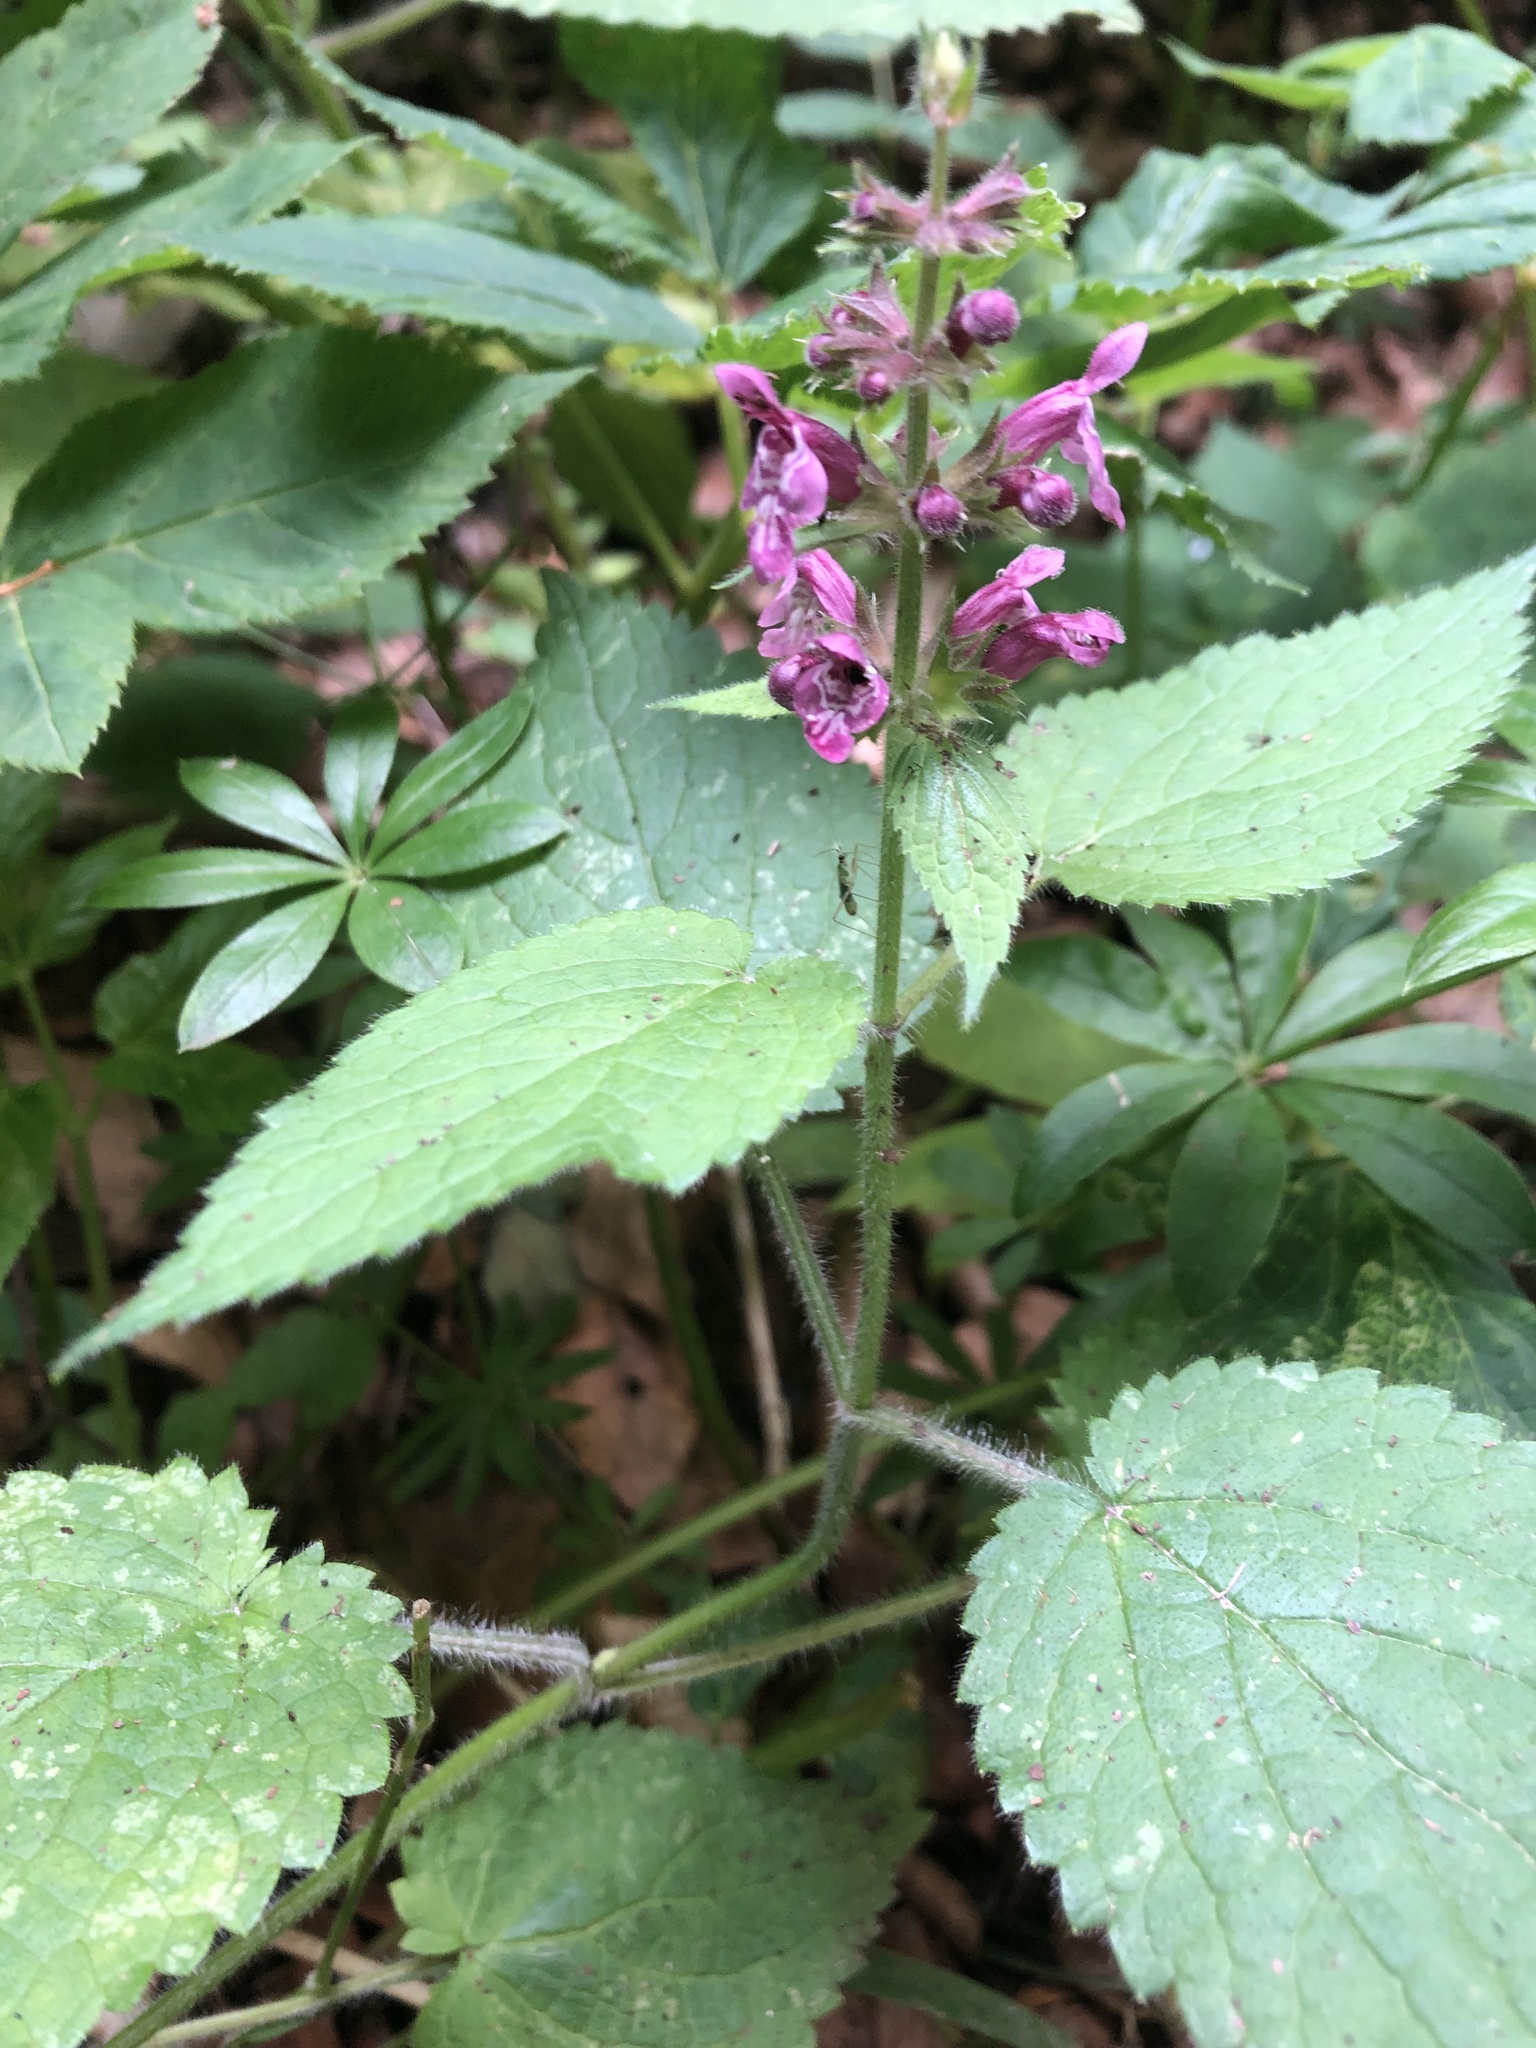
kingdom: Plantae
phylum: Tracheophyta
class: Magnoliopsida
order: Lamiales
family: Lamiaceae
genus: Stachys
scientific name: Stachys sylvatica
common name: Hedge woundwort
